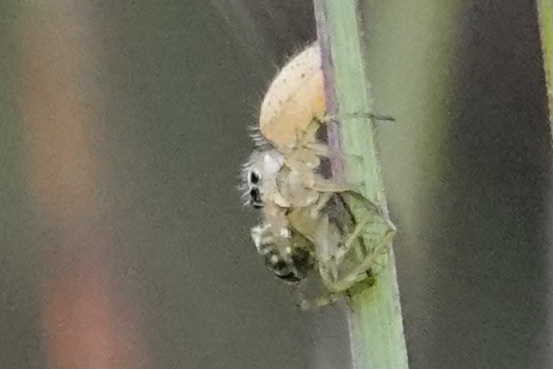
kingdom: Animalia
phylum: Arthropoda
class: Arachnida
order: Araneae
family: Salticidae
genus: Colonus
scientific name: Colonus sylvanus
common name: Jumping spiders
